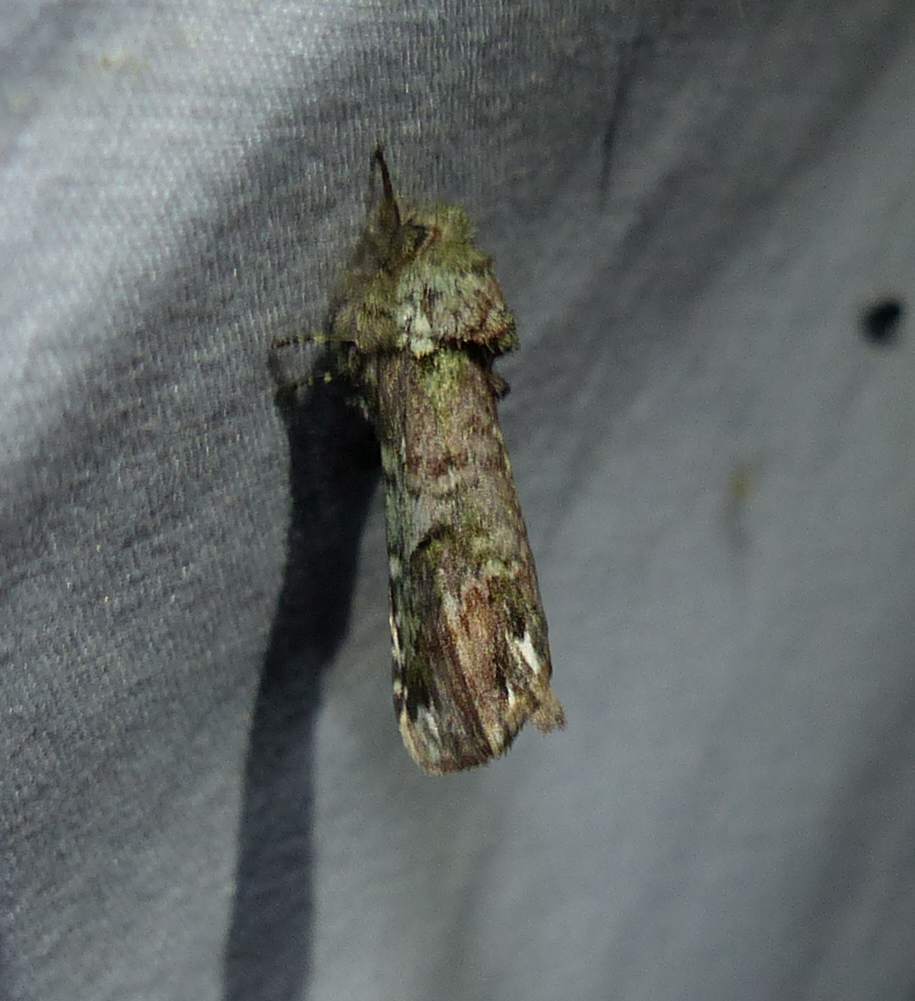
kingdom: Animalia
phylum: Arthropoda
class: Insecta
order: Lepidoptera
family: Notodontidae
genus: Schizura
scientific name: Schizura
